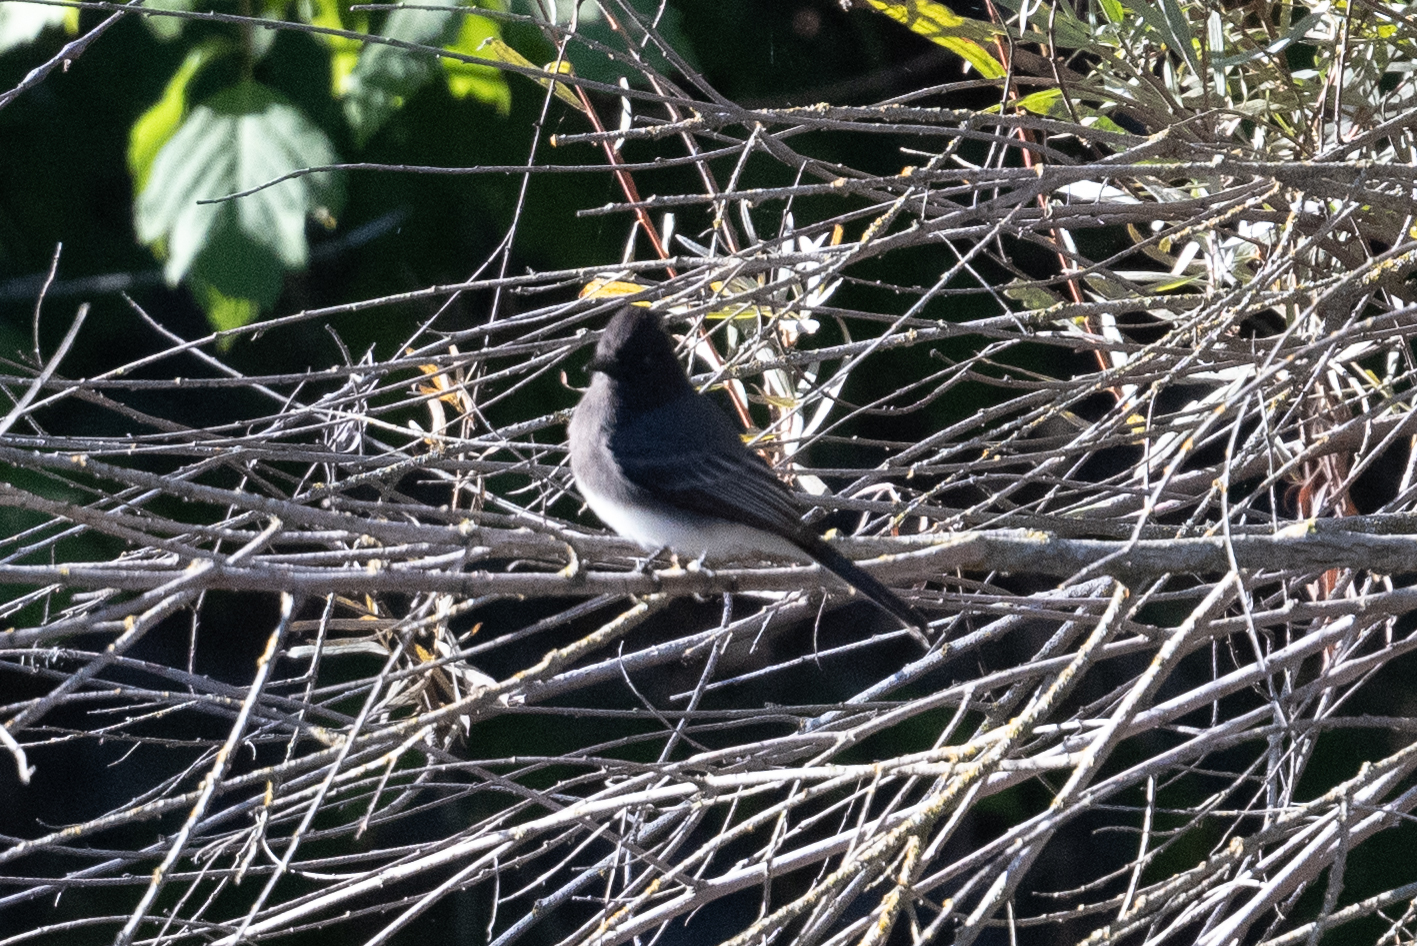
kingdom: Animalia
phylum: Chordata
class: Aves
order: Passeriformes
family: Tyrannidae
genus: Sayornis
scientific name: Sayornis nigricans
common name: Black phoebe
